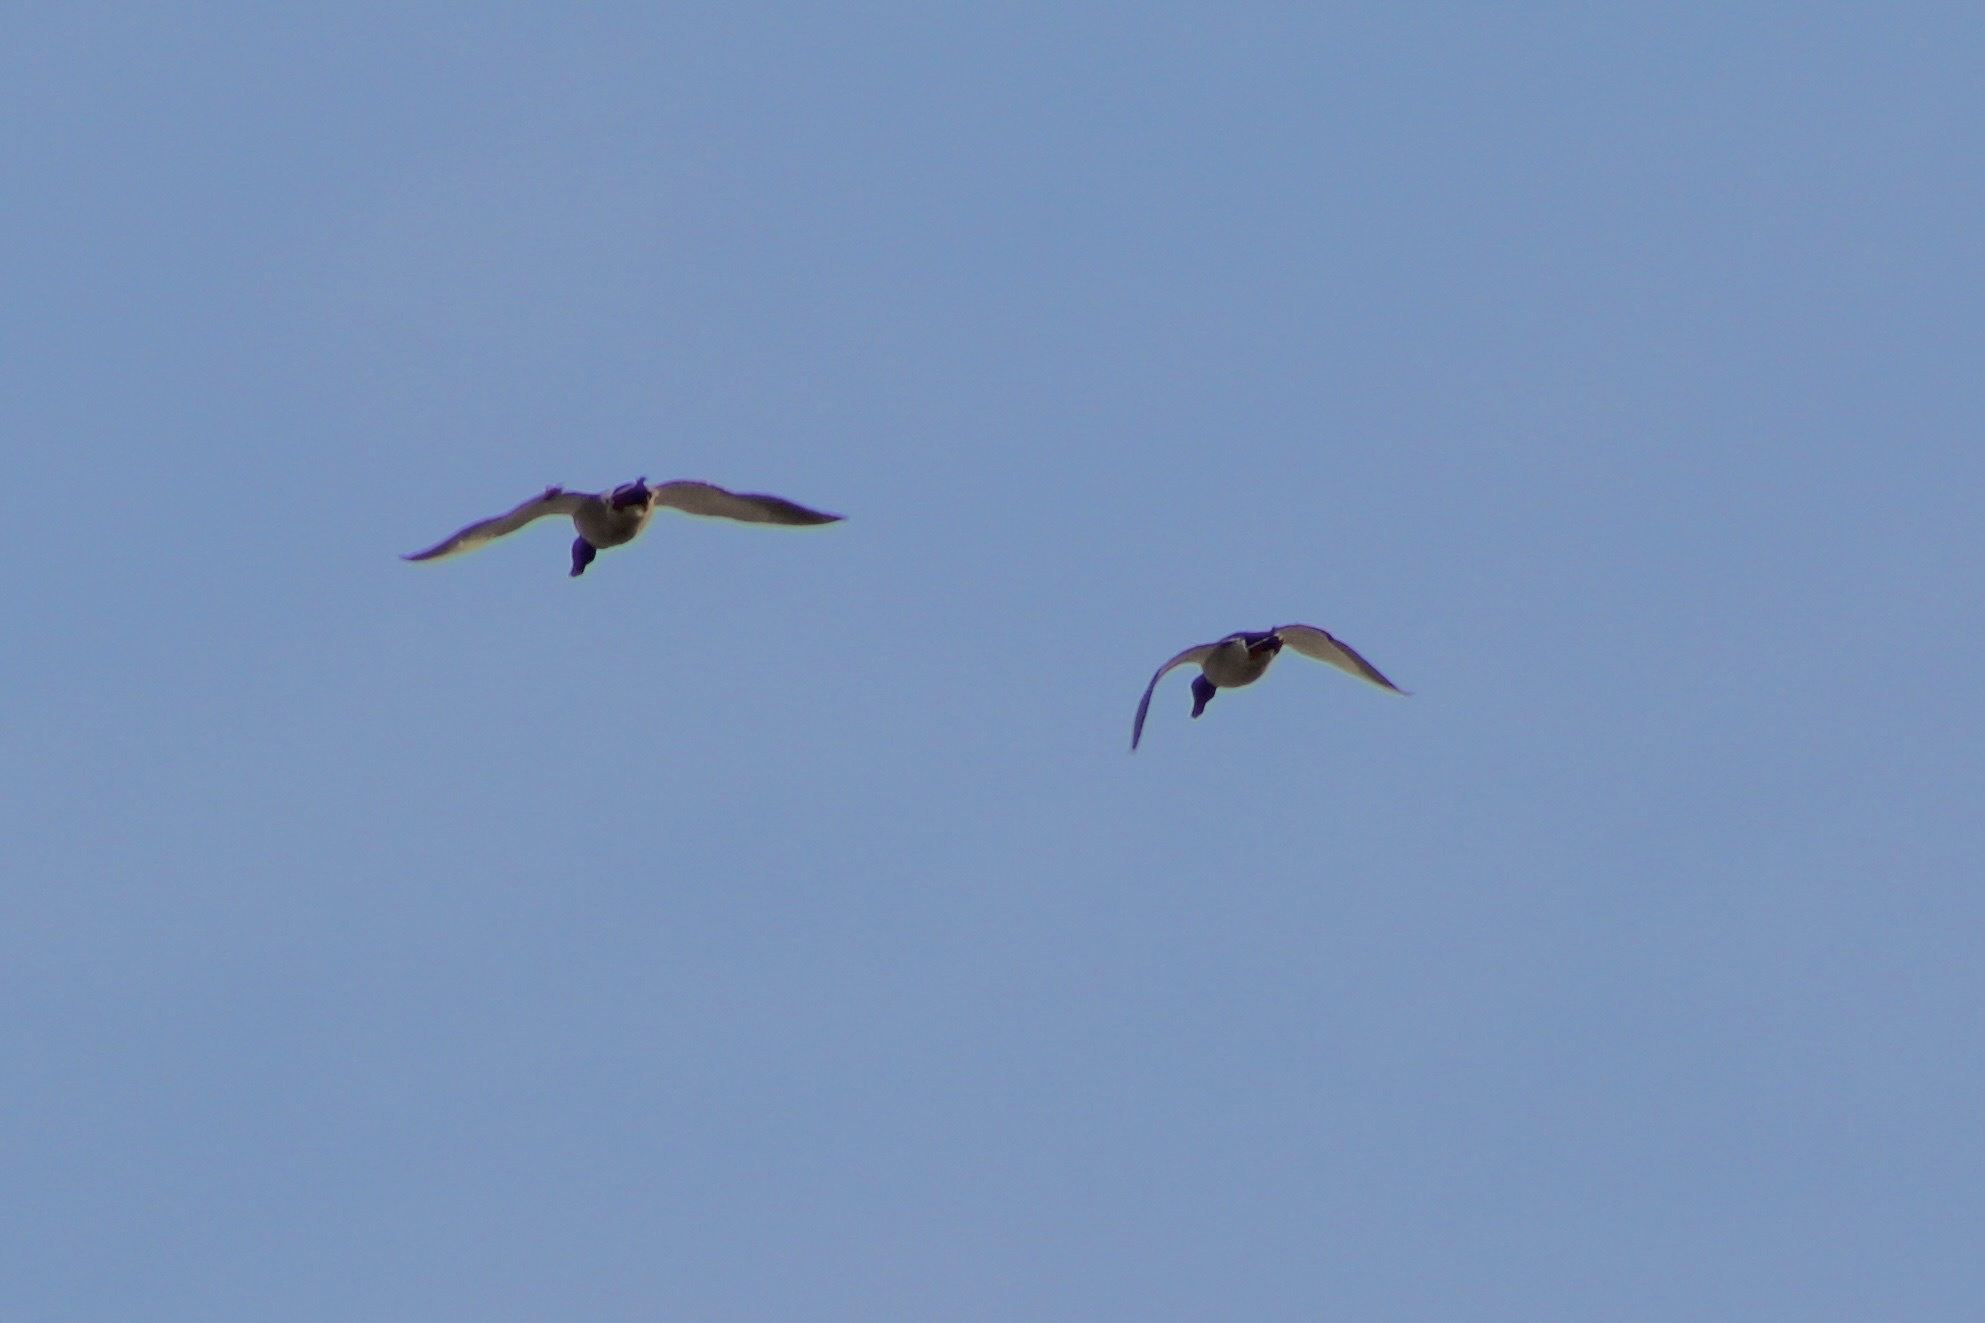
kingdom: Animalia
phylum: Chordata
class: Aves
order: Anseriformes
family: Anatidae
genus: Anas
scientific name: Anas platyrhynchos
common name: Mallard
